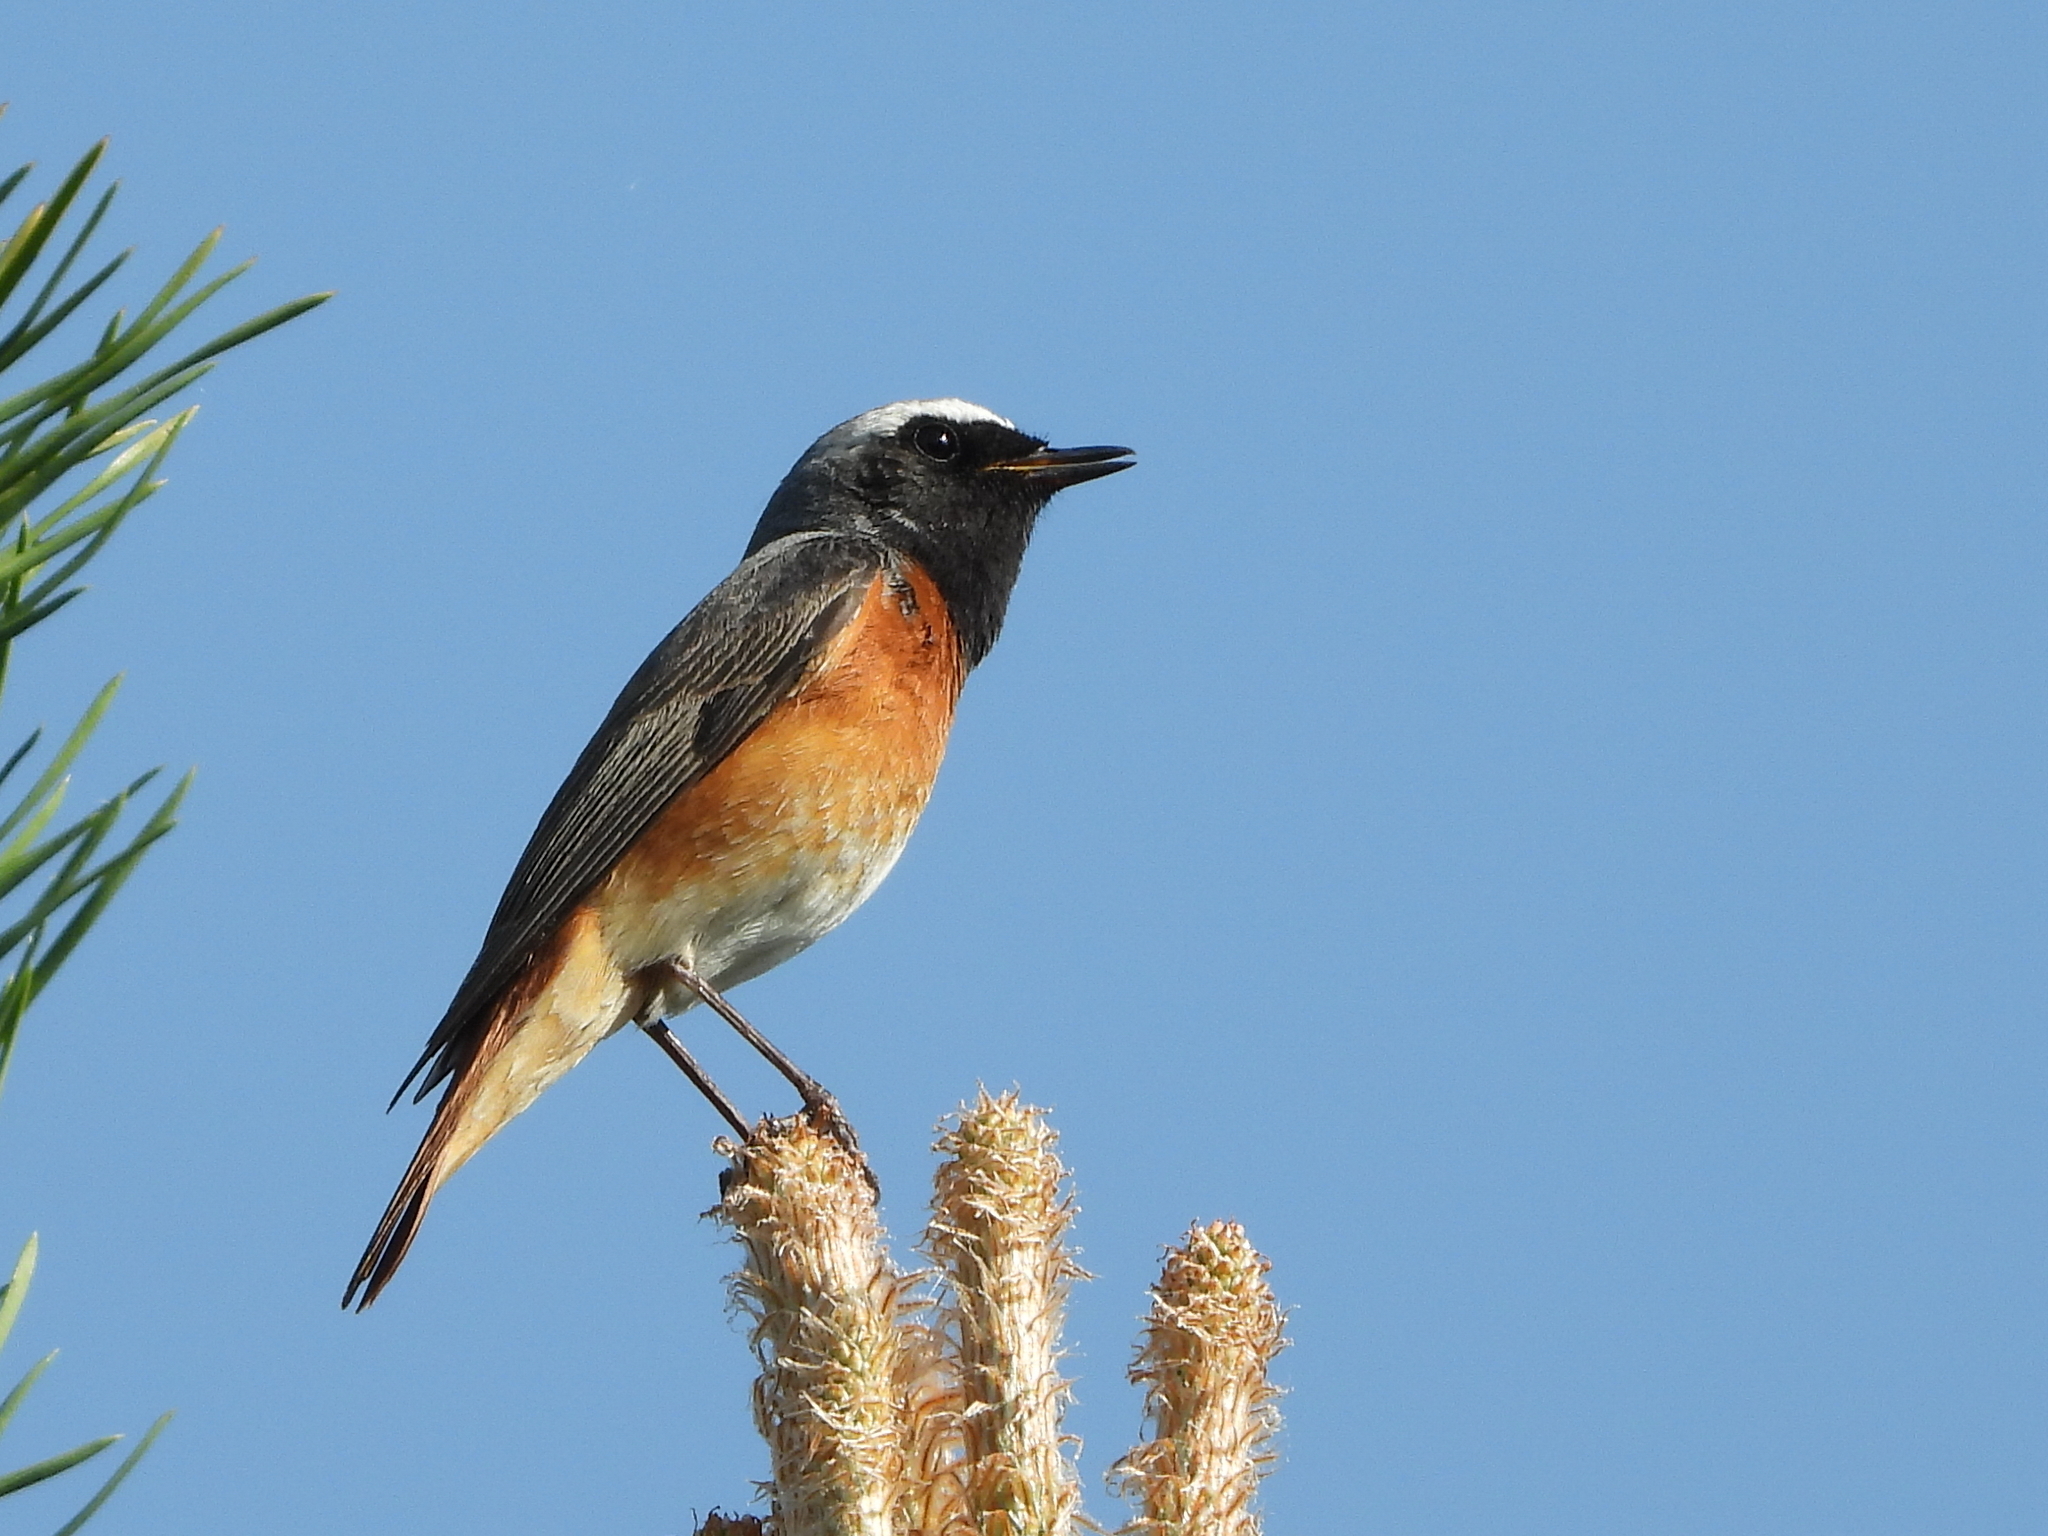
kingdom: Animalia
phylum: Chordata
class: Aves
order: Passeriformes
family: Muscicapidae
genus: Phoenicurus
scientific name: Phoenicurus phoenicurus
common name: Common redstart
